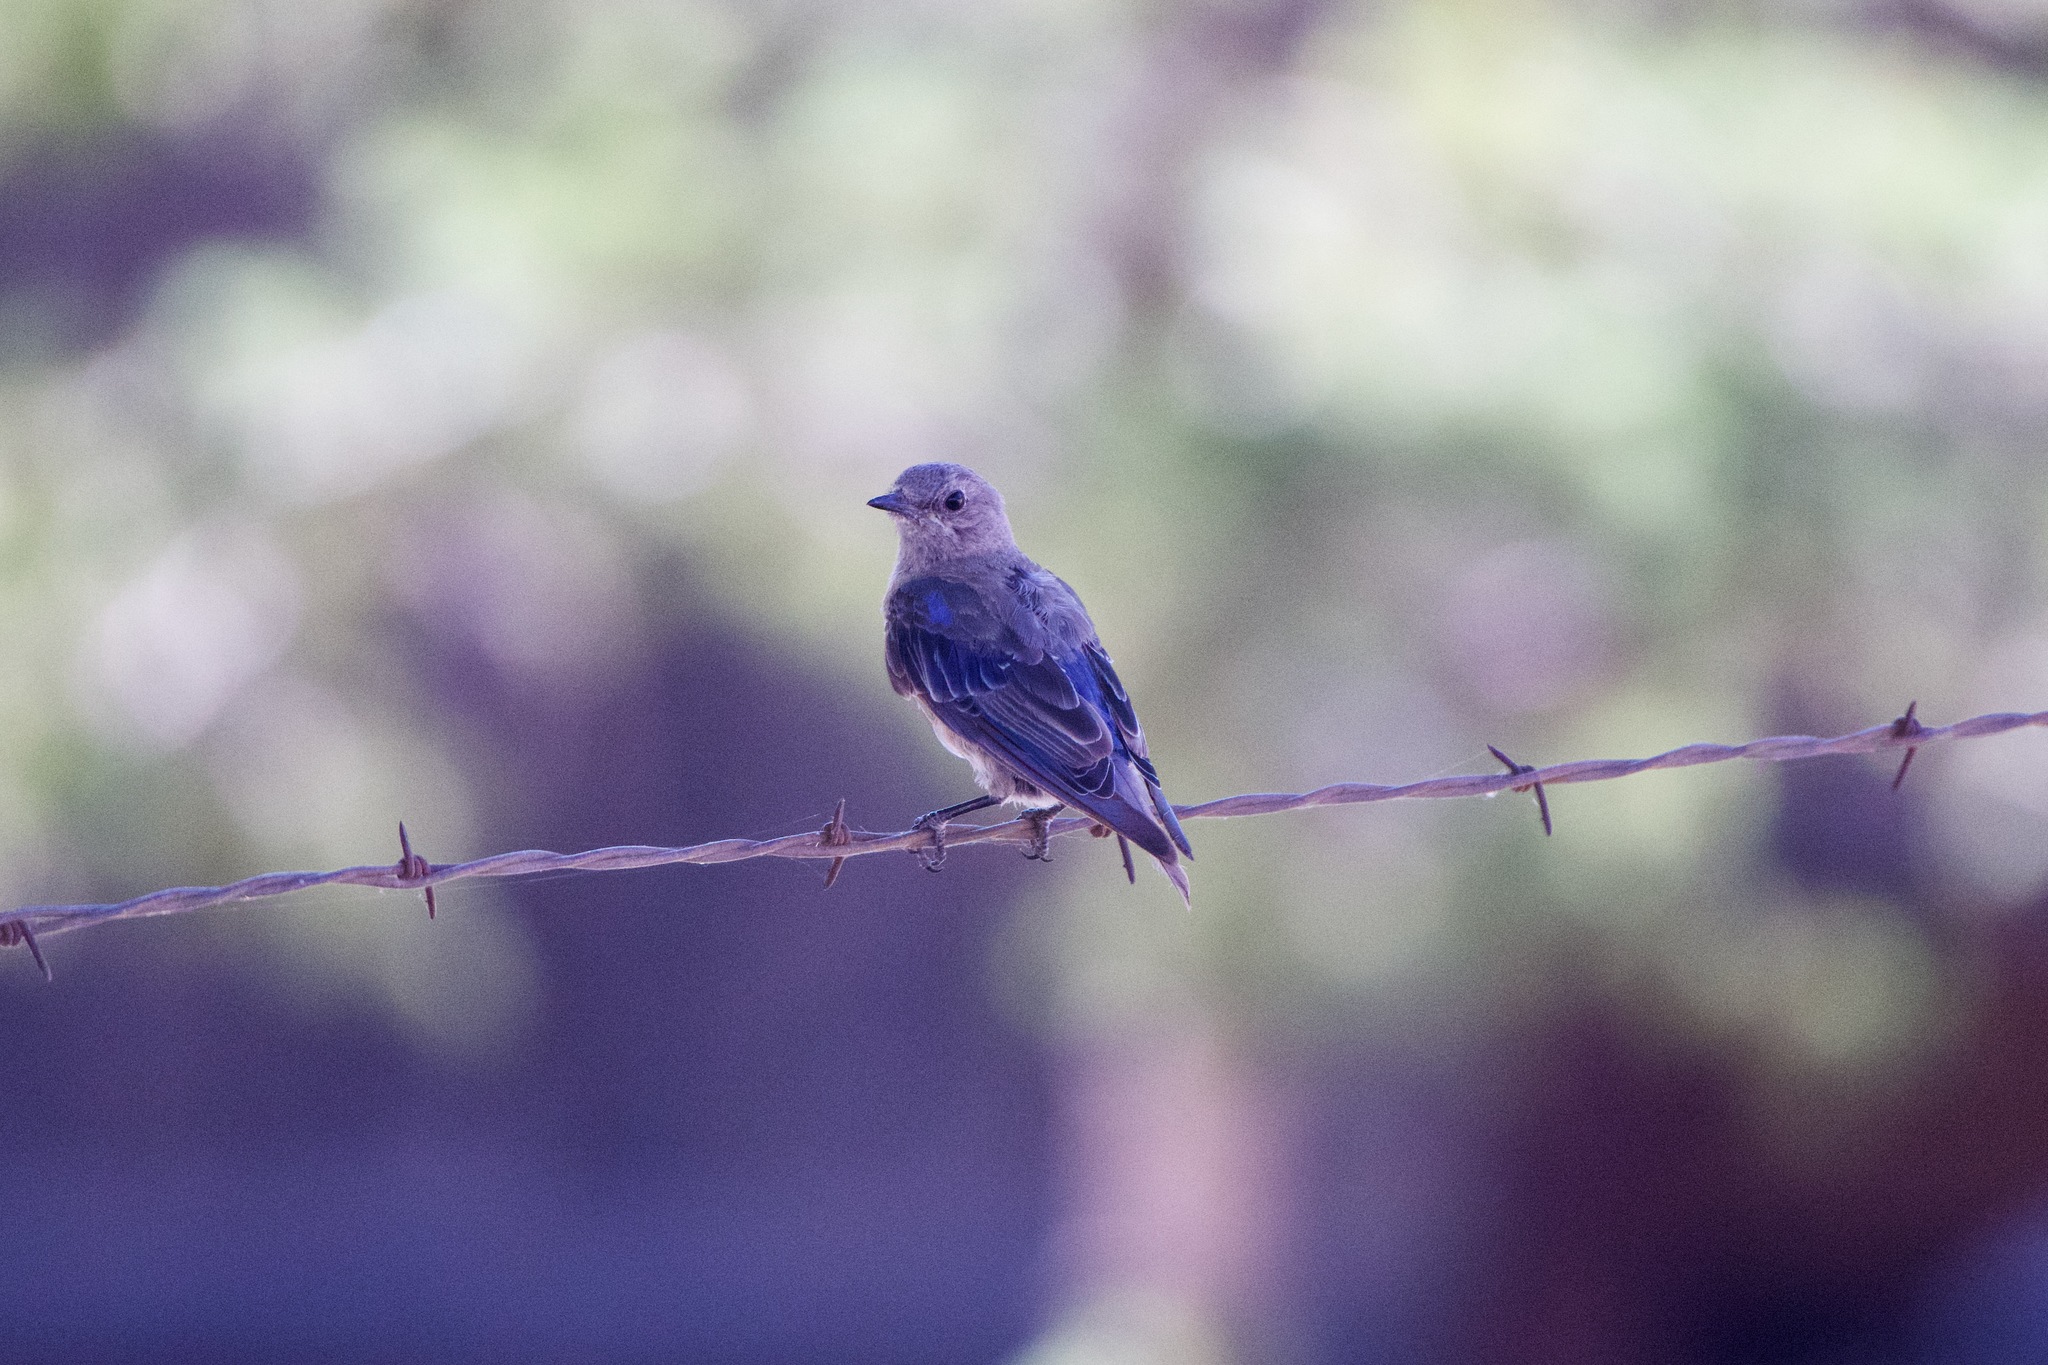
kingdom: Animalia
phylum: Chordata
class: Aves
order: Passeriformes
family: Turdidae
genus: Sialia
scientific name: Sialia mexicana
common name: Western bluebird
